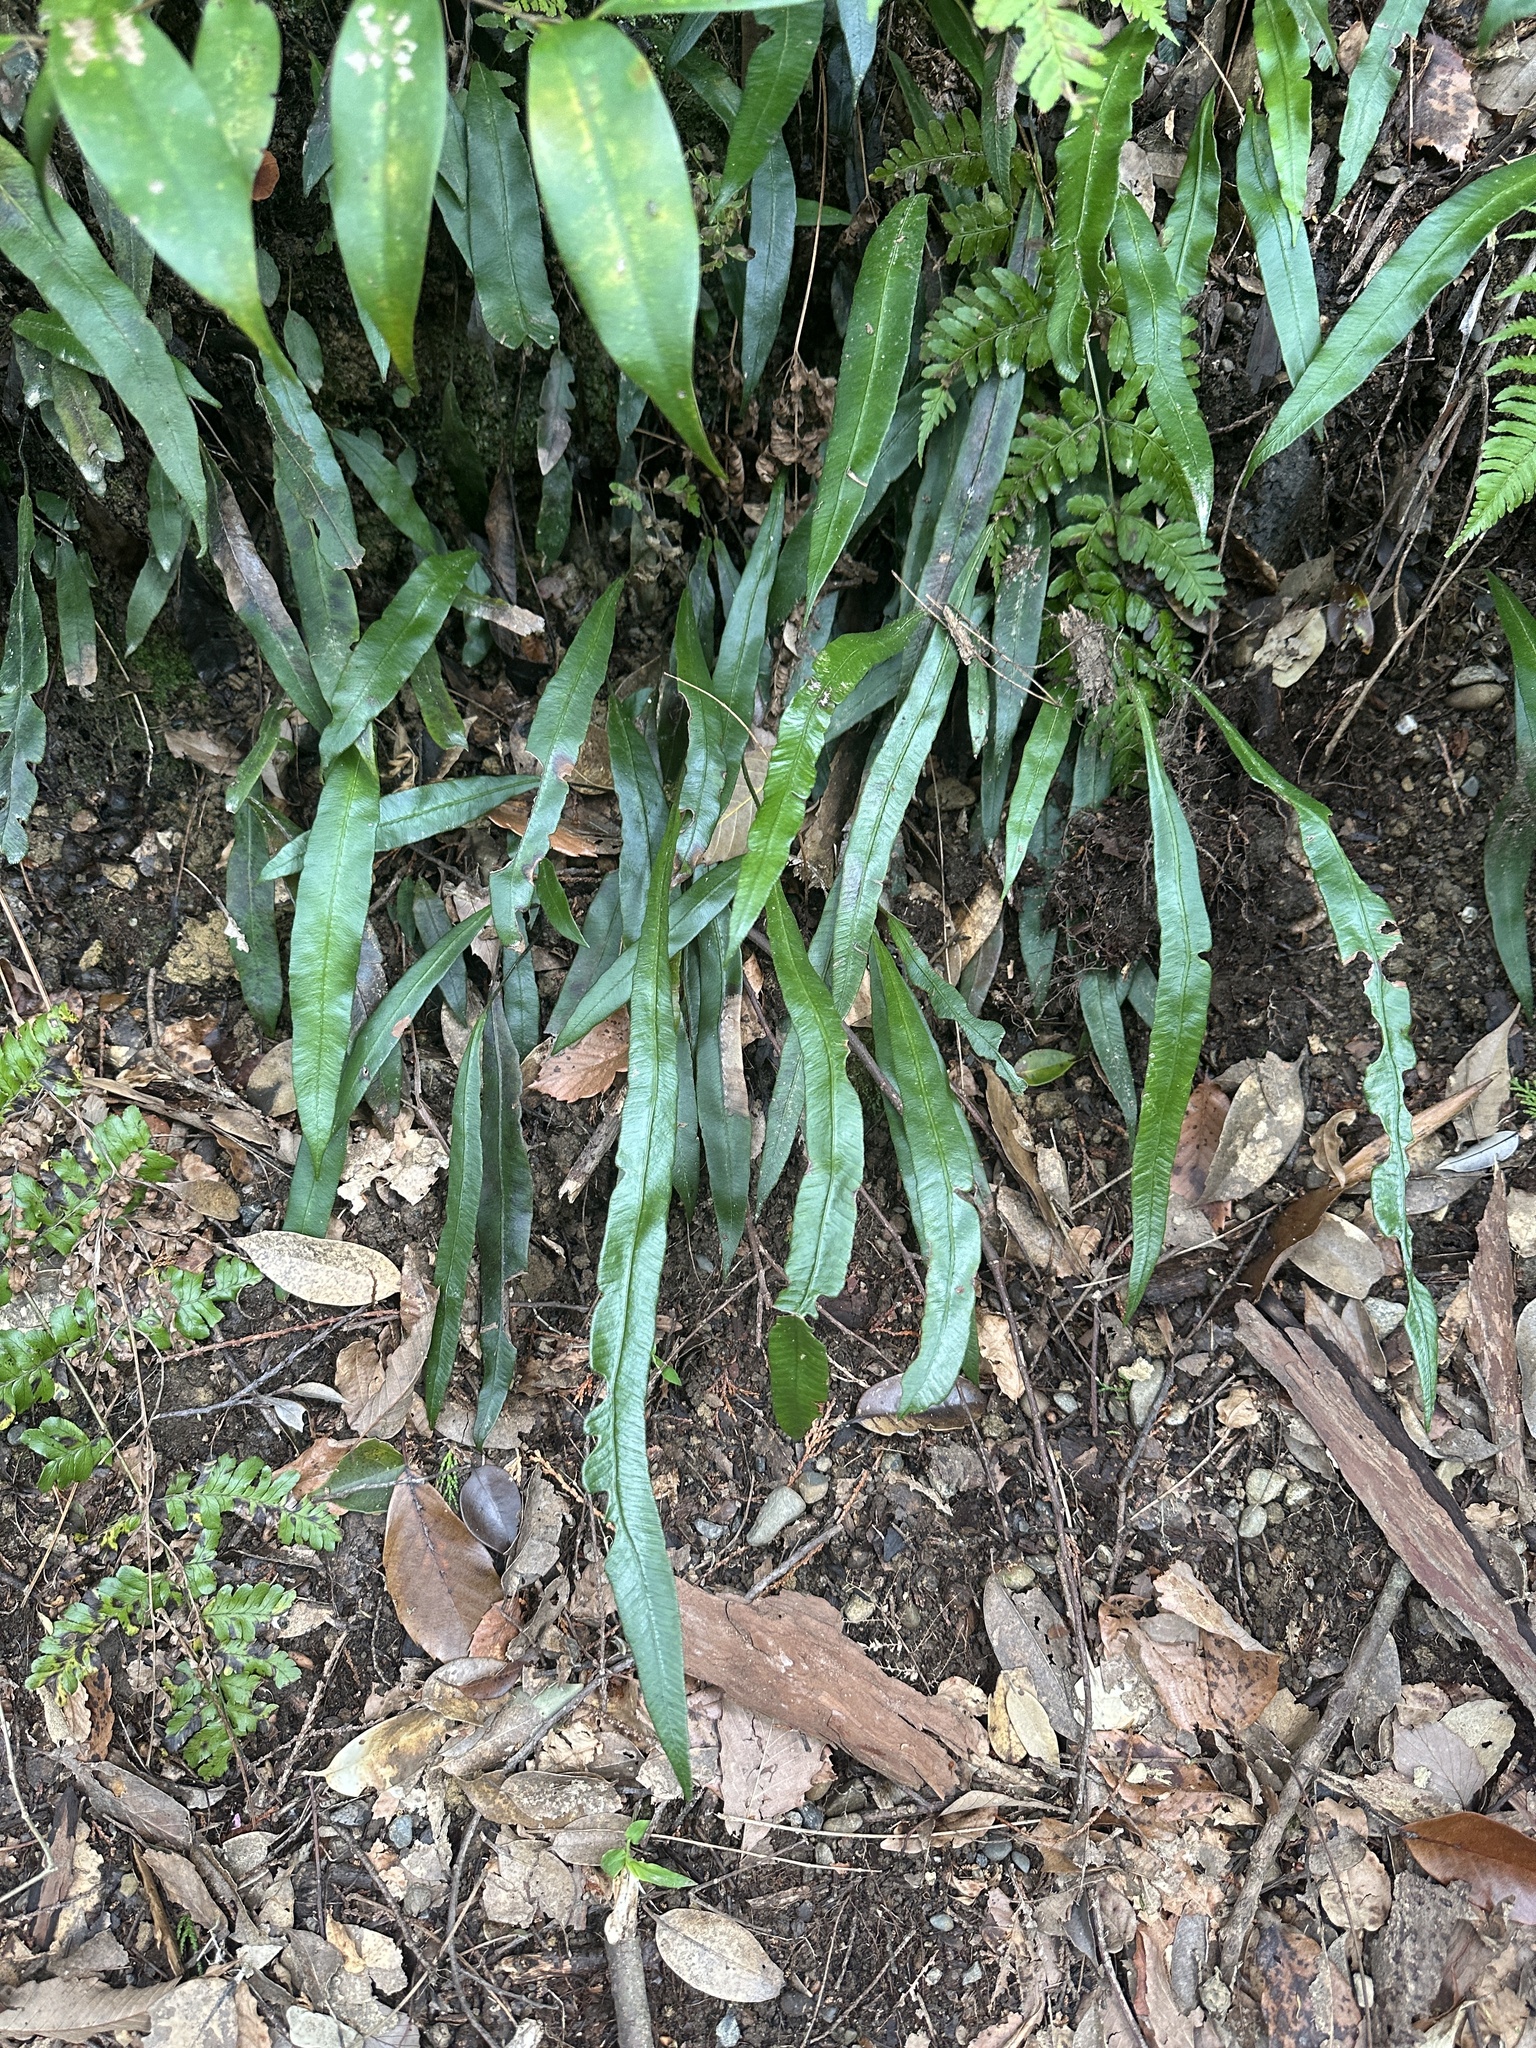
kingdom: Plantae
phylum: Tracheophyta
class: Polypodiopsida
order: Polypodiales
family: Athyriaceae
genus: Deparia
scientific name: Deparia lancea
